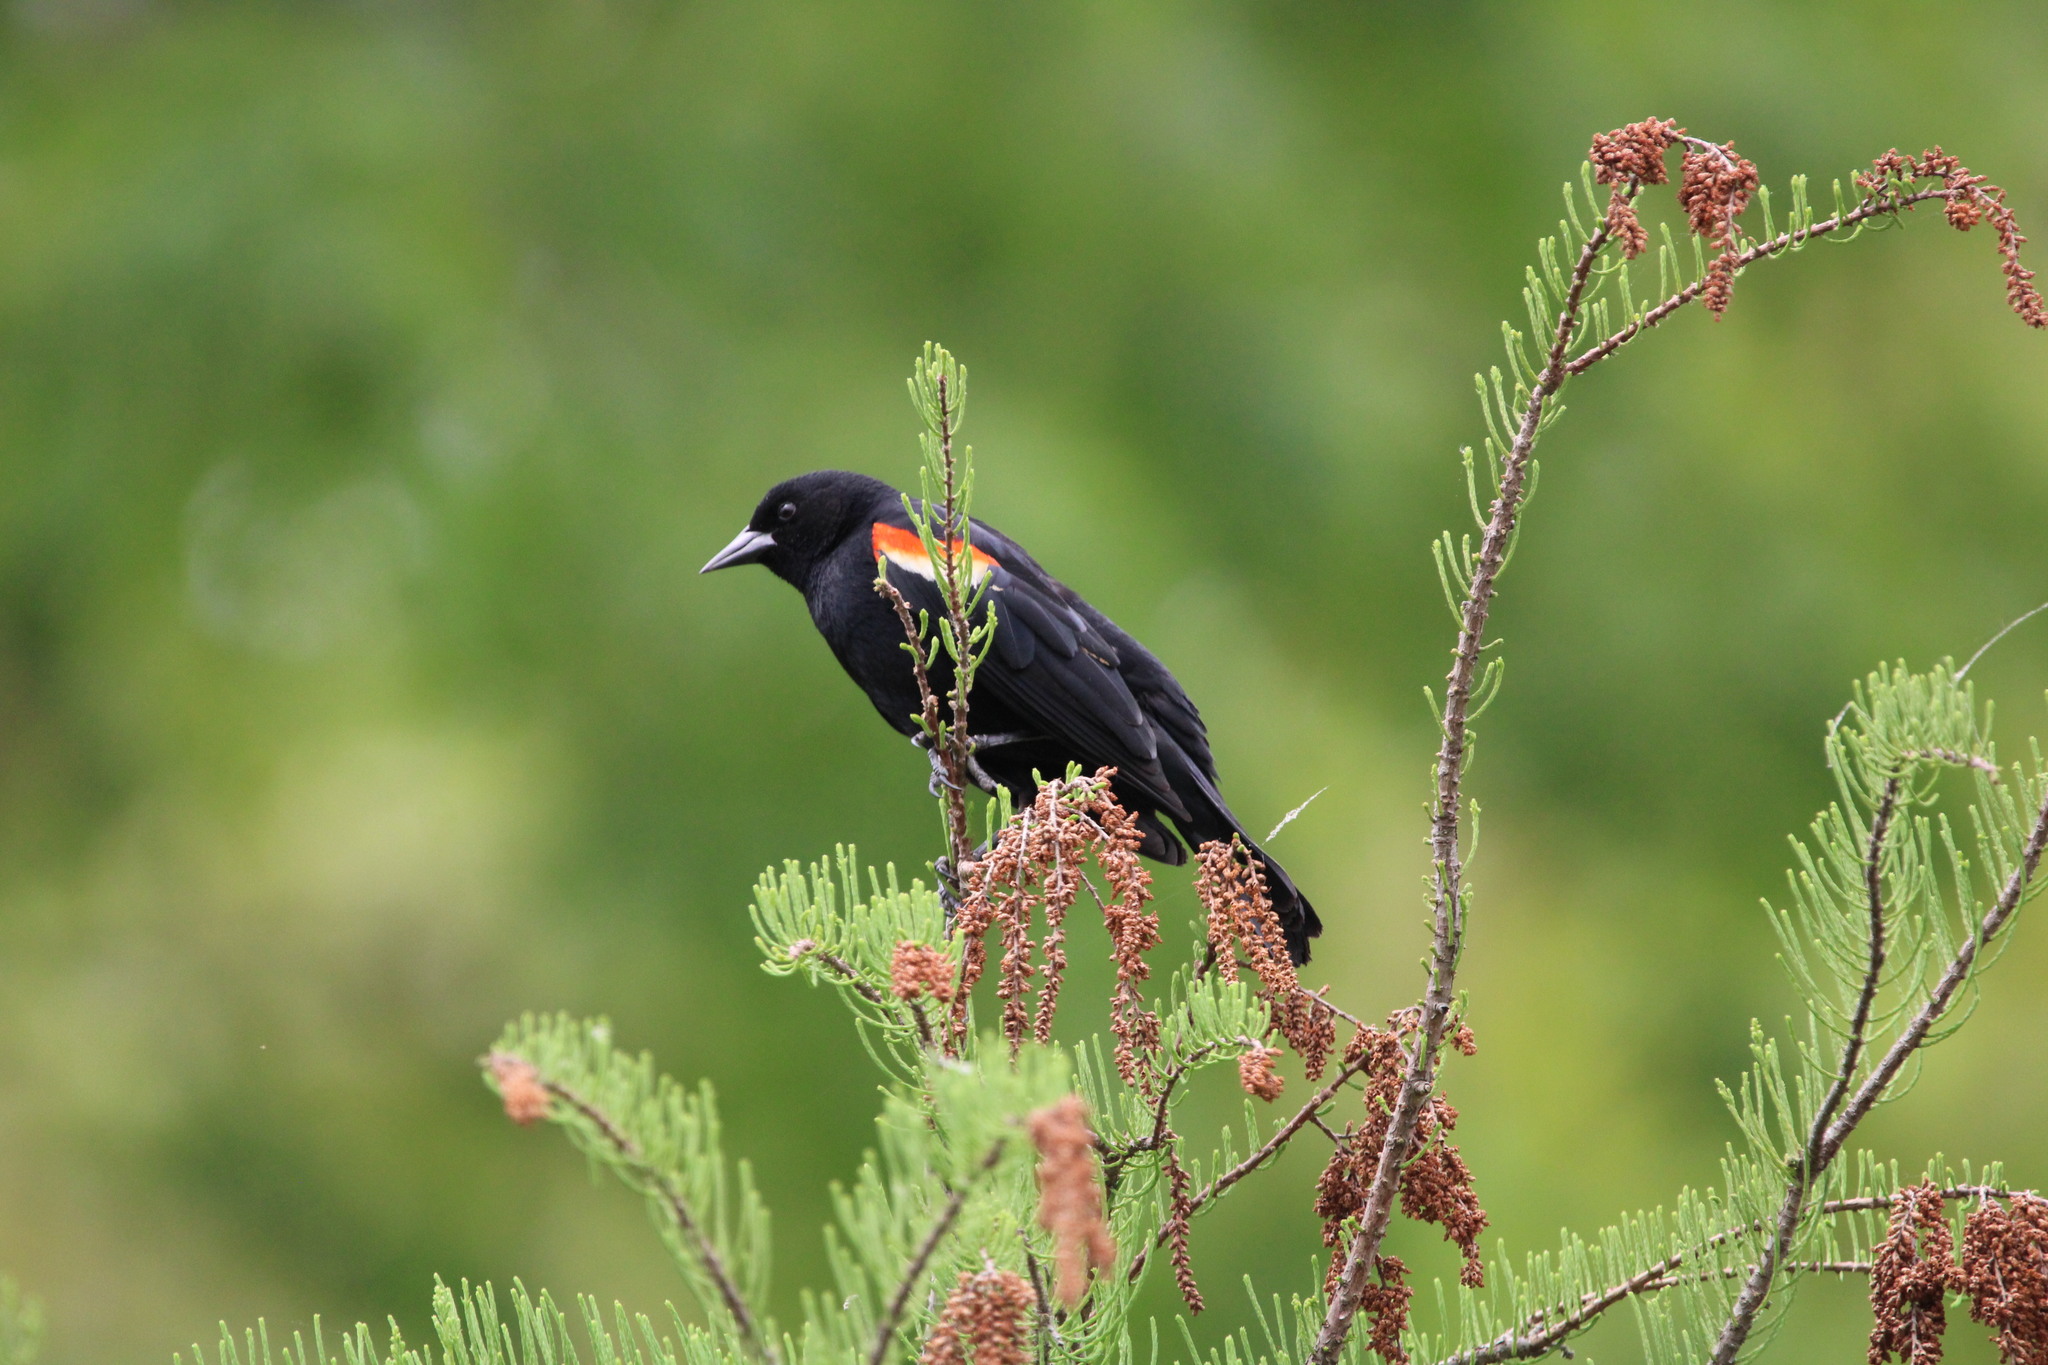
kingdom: Animalia
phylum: Chordata
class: Aves
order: Passeriformes
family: Icteridae
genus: Agelaius
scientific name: Agelaius phoeniceus
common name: Red-winged blackbird
